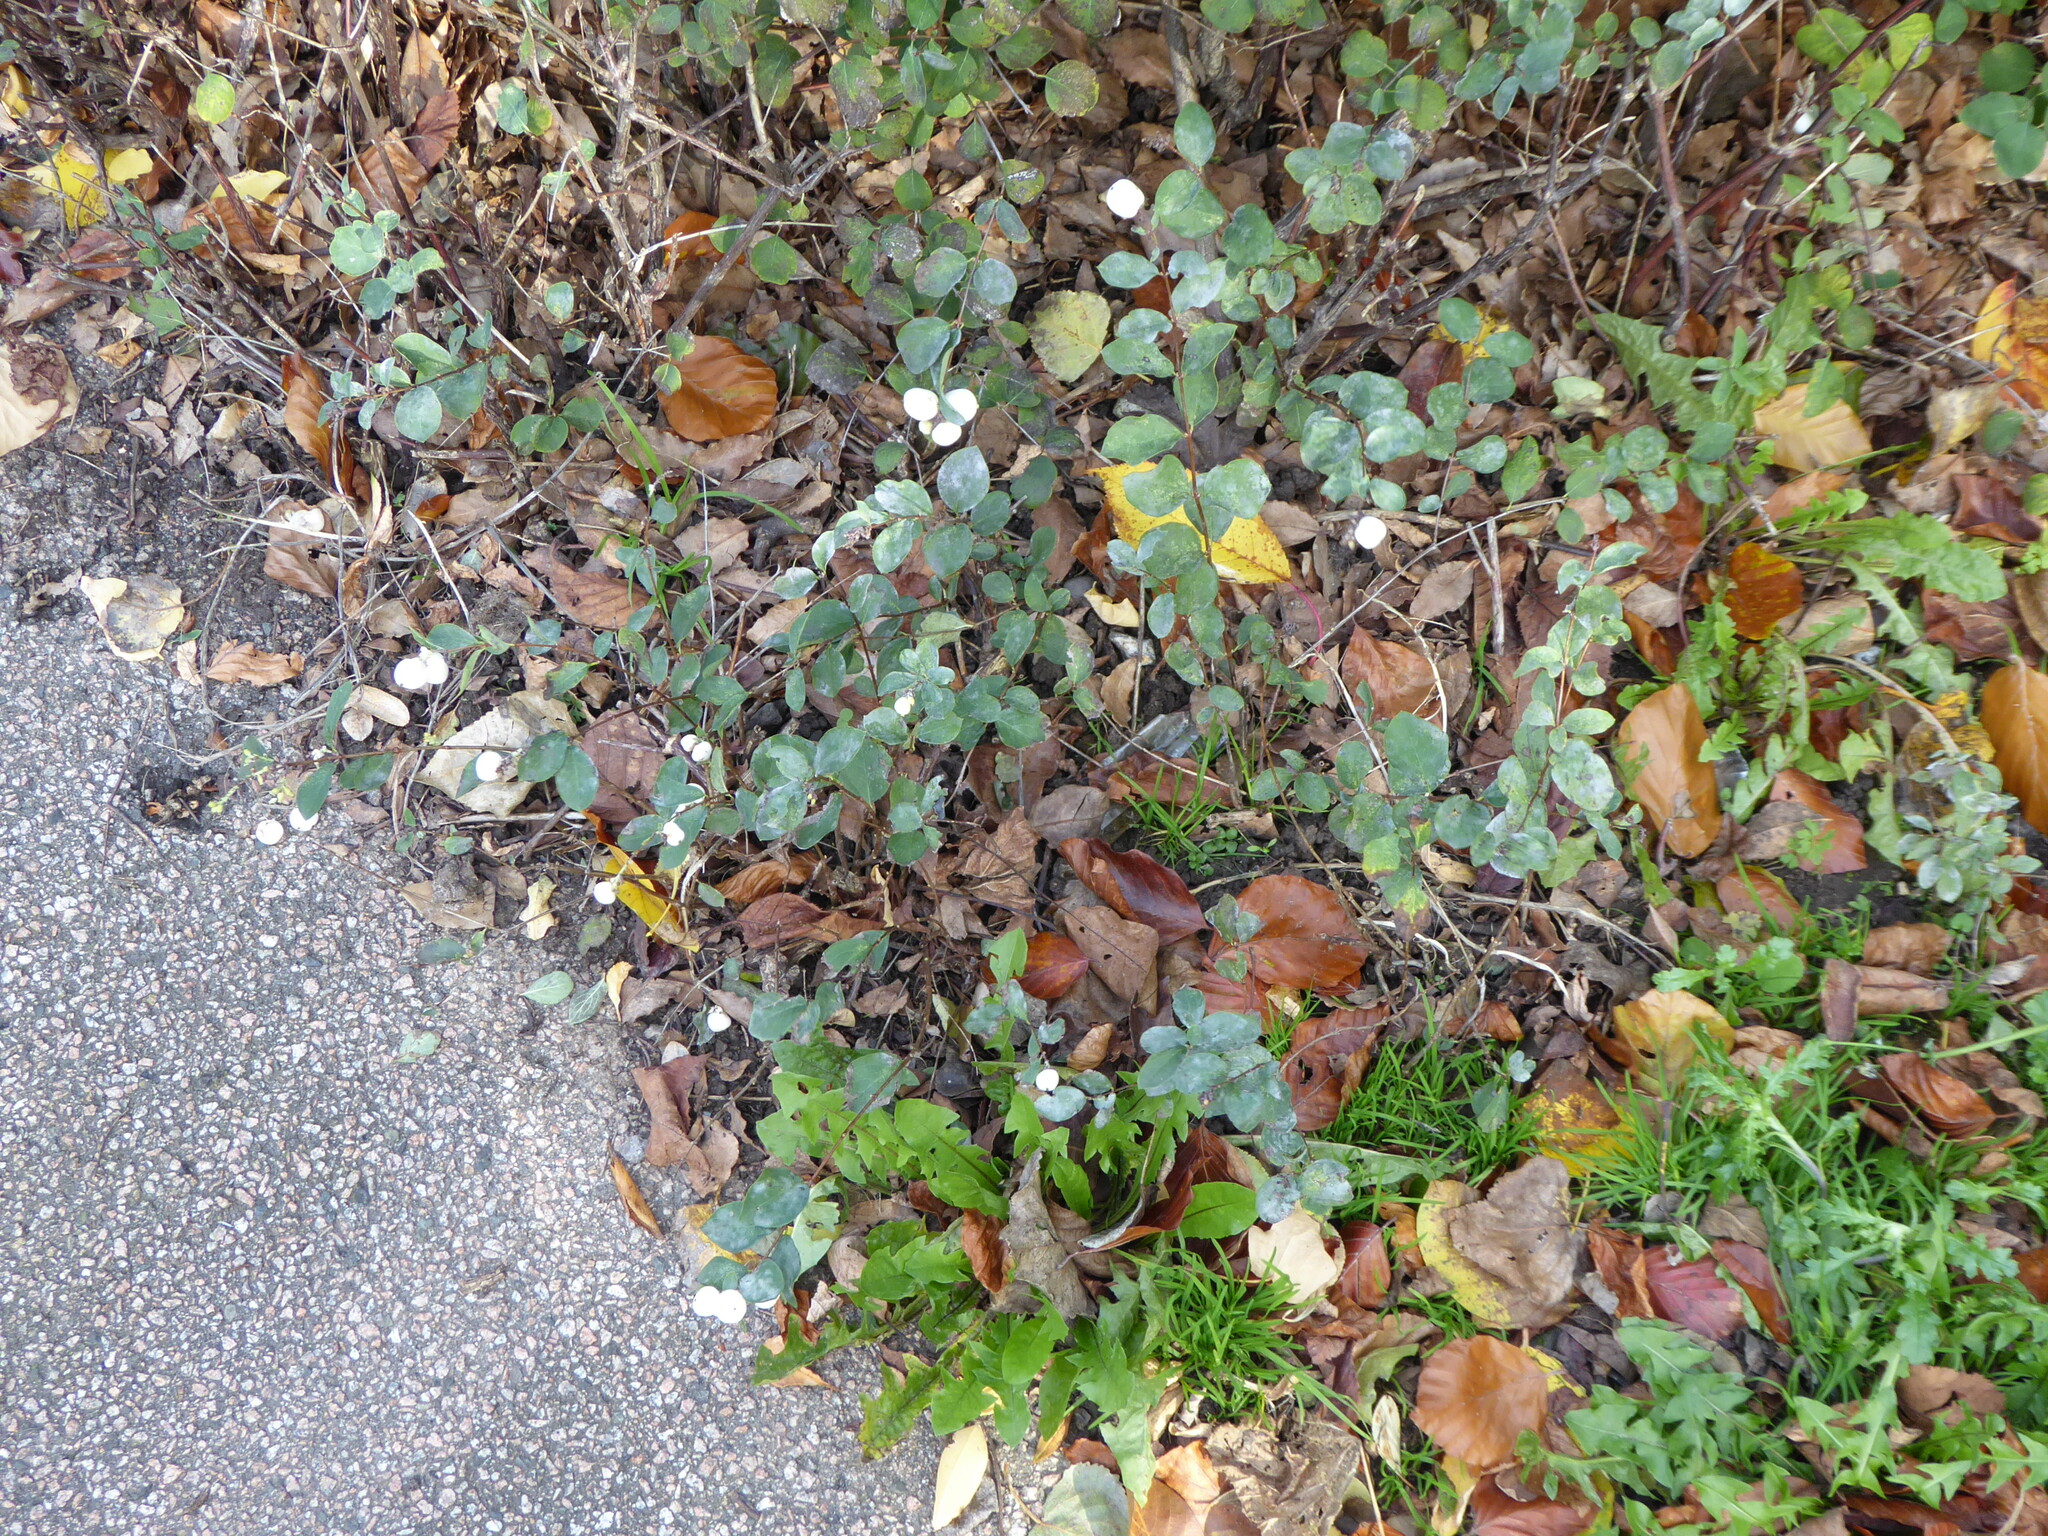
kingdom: Plantae
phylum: Tracheophyta
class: Magnoliopsida
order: Dipsacales
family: Caprifoliaceae
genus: Symphoricarpos
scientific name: Symphoricarpos albus
